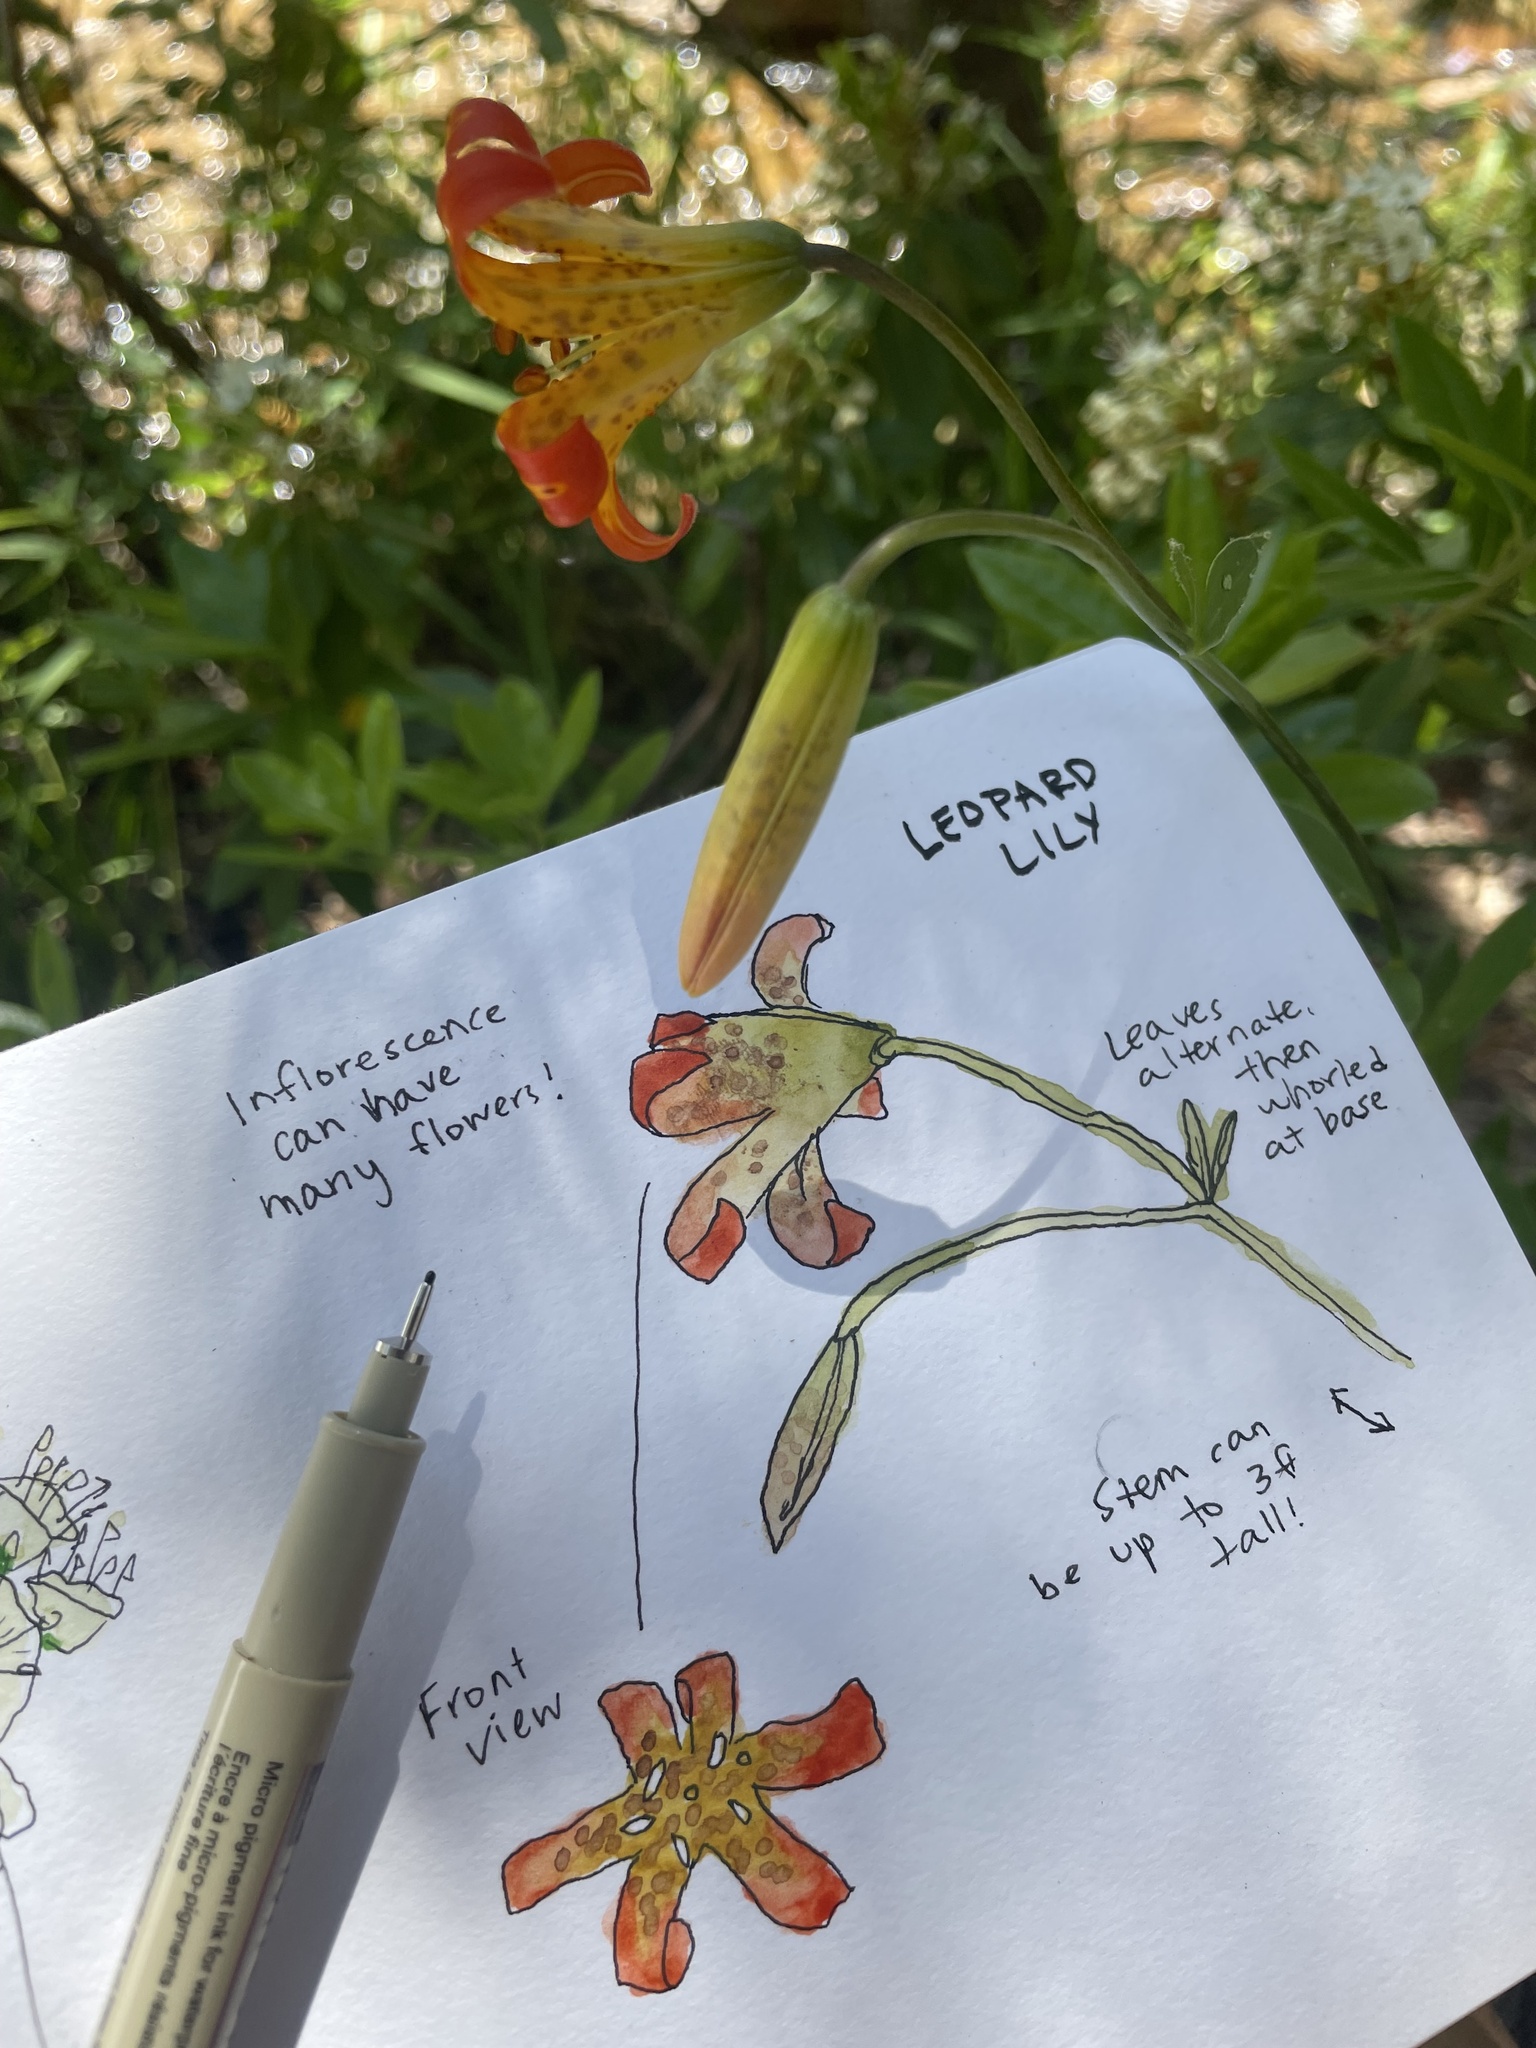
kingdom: Plantae
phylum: Tracheophyta
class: Liliopsida
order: Liliales
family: Liliaceae
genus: Lilium
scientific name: Lilium parvum
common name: Alpine lily
